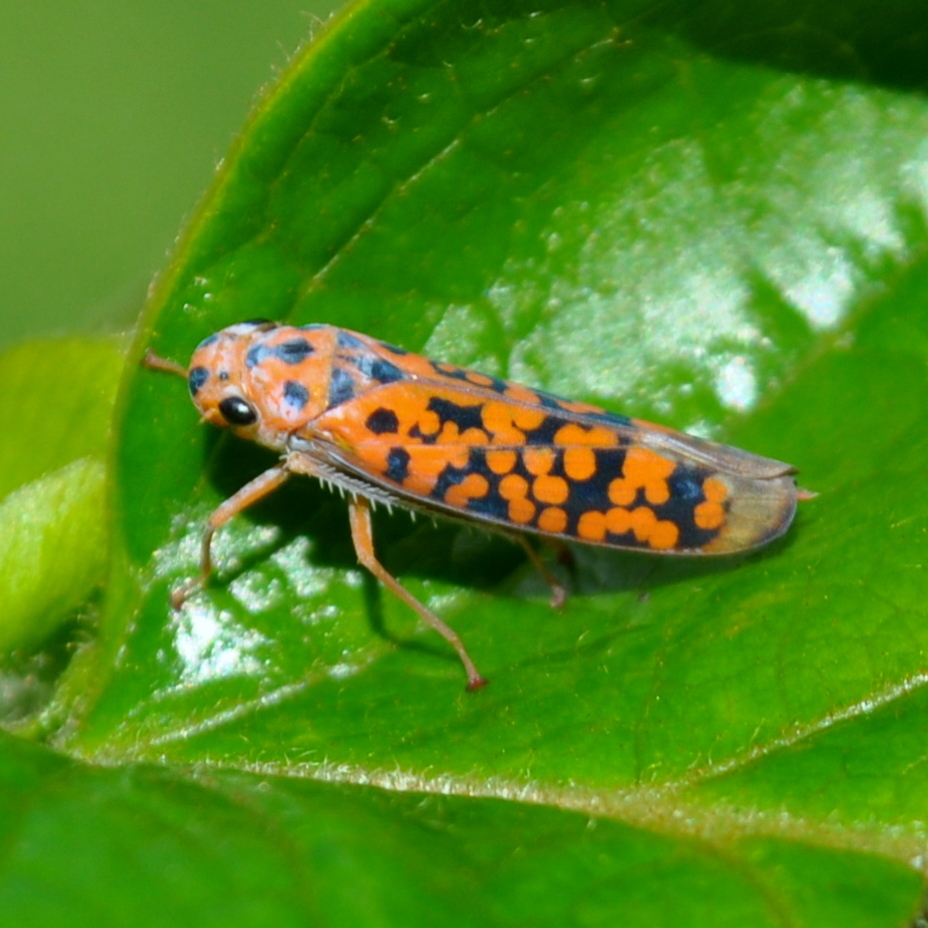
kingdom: Animalia
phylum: Arthropoda
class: Insecta
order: Hemiptera
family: Cicadellidae
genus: Pawiloma
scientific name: Pawiloma victima
